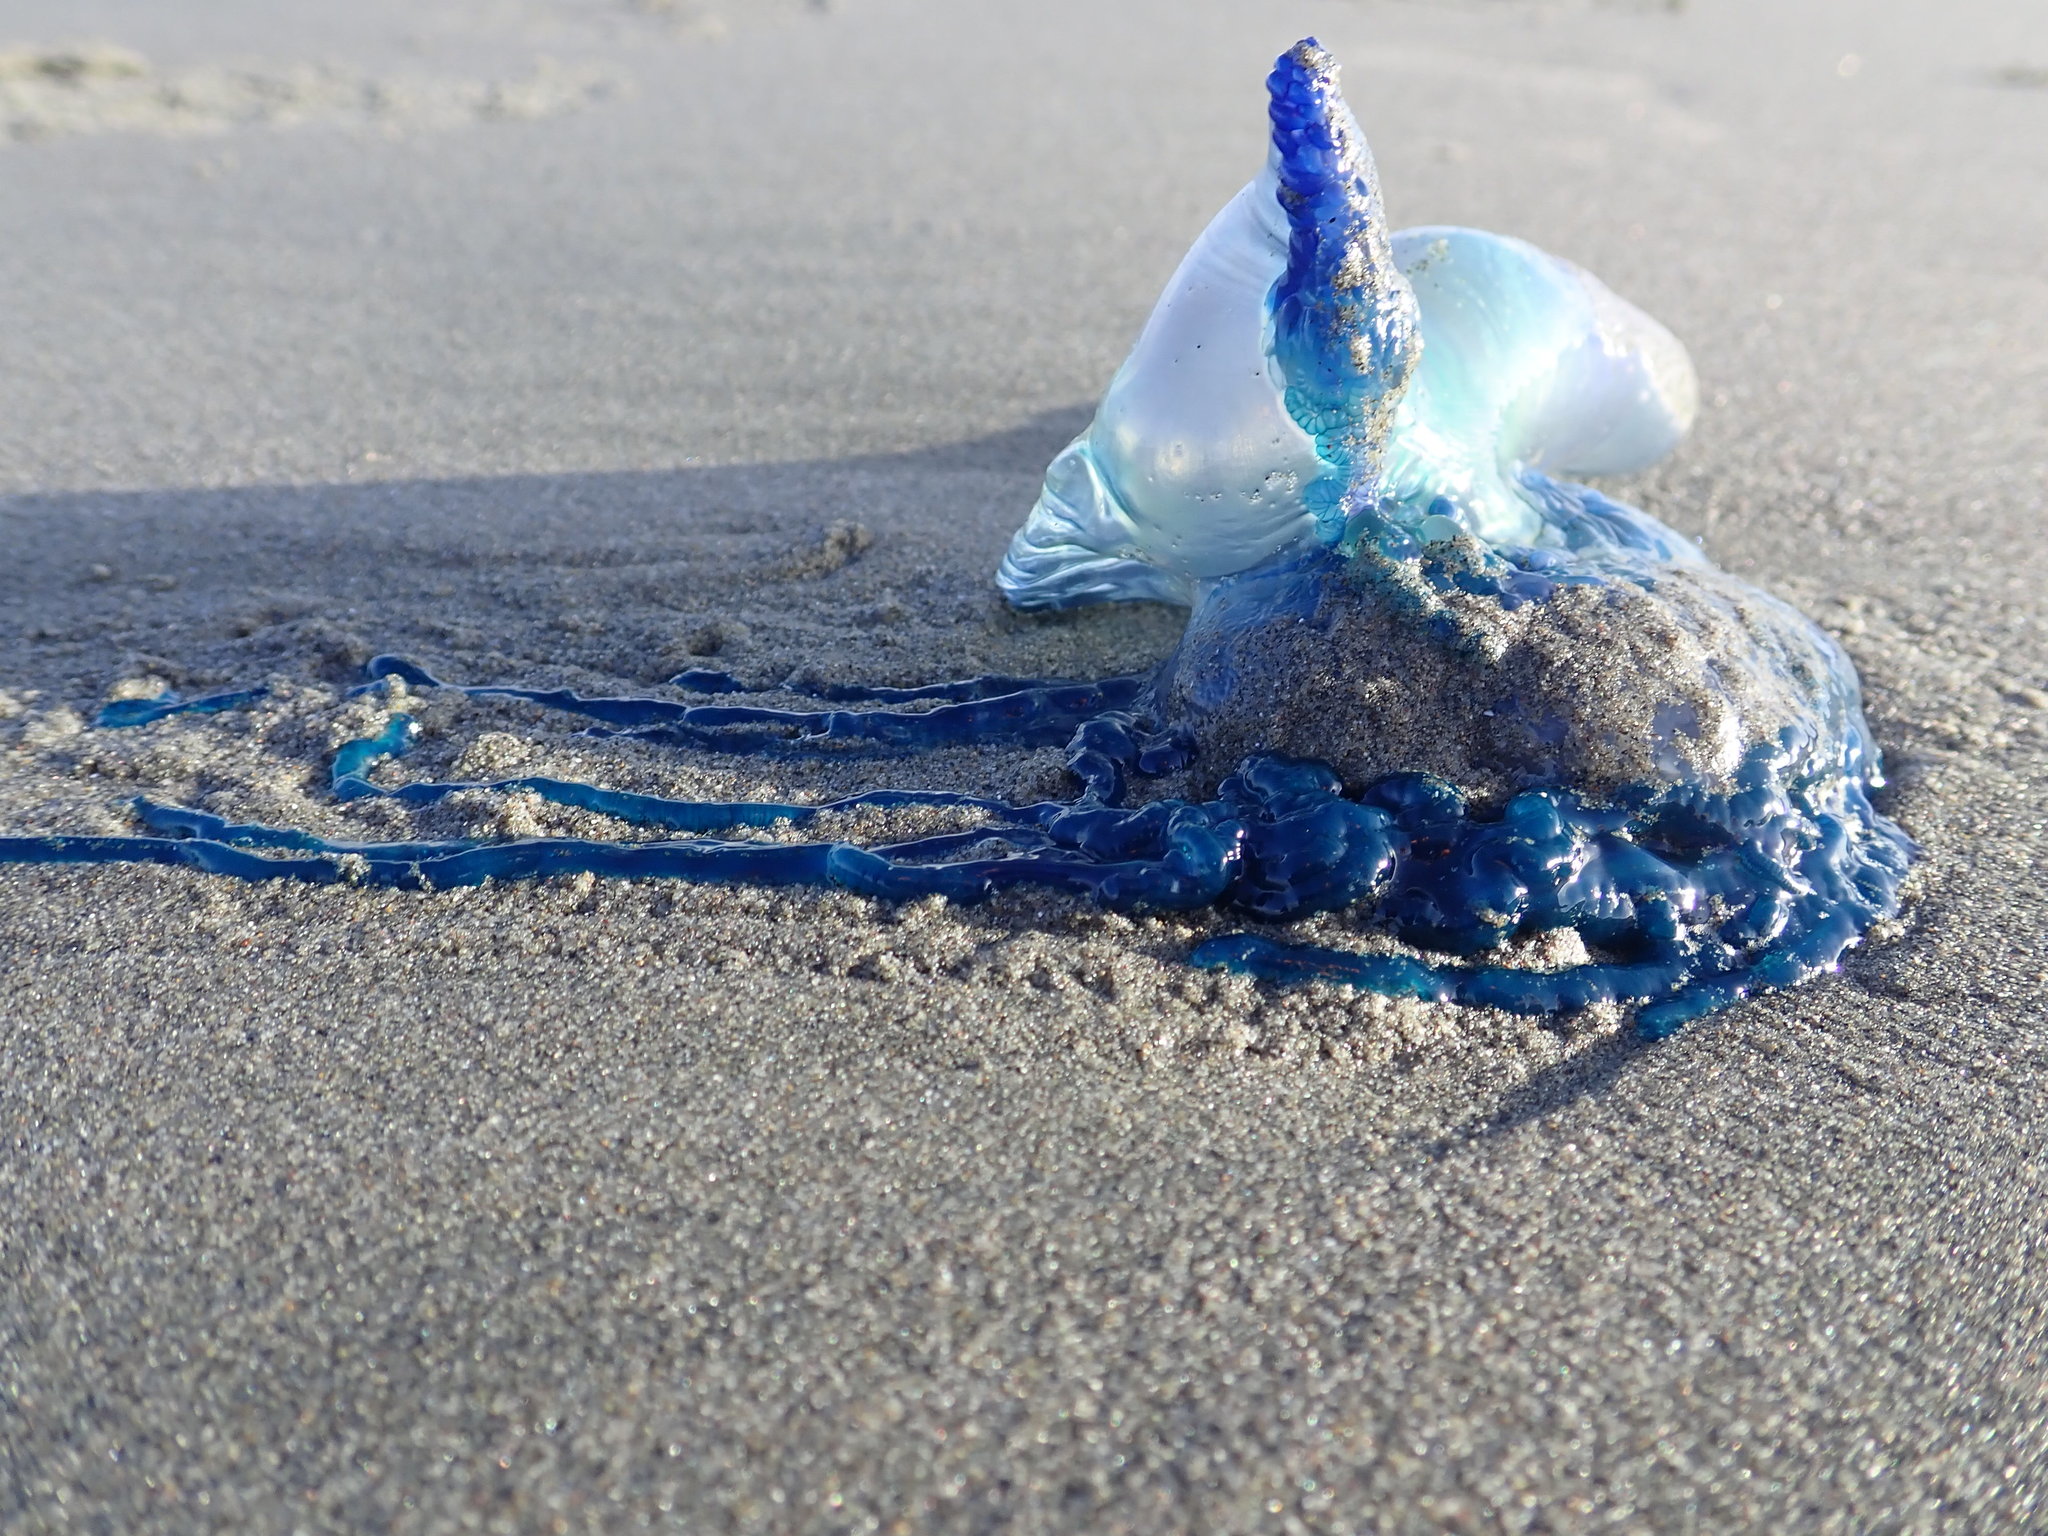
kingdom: Animalia
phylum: Cnidaria
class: Hydrozoa
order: Siphonophorae
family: Physaliidae
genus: Physalia
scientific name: Physalia physalis
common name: Portuguese man-of-war
